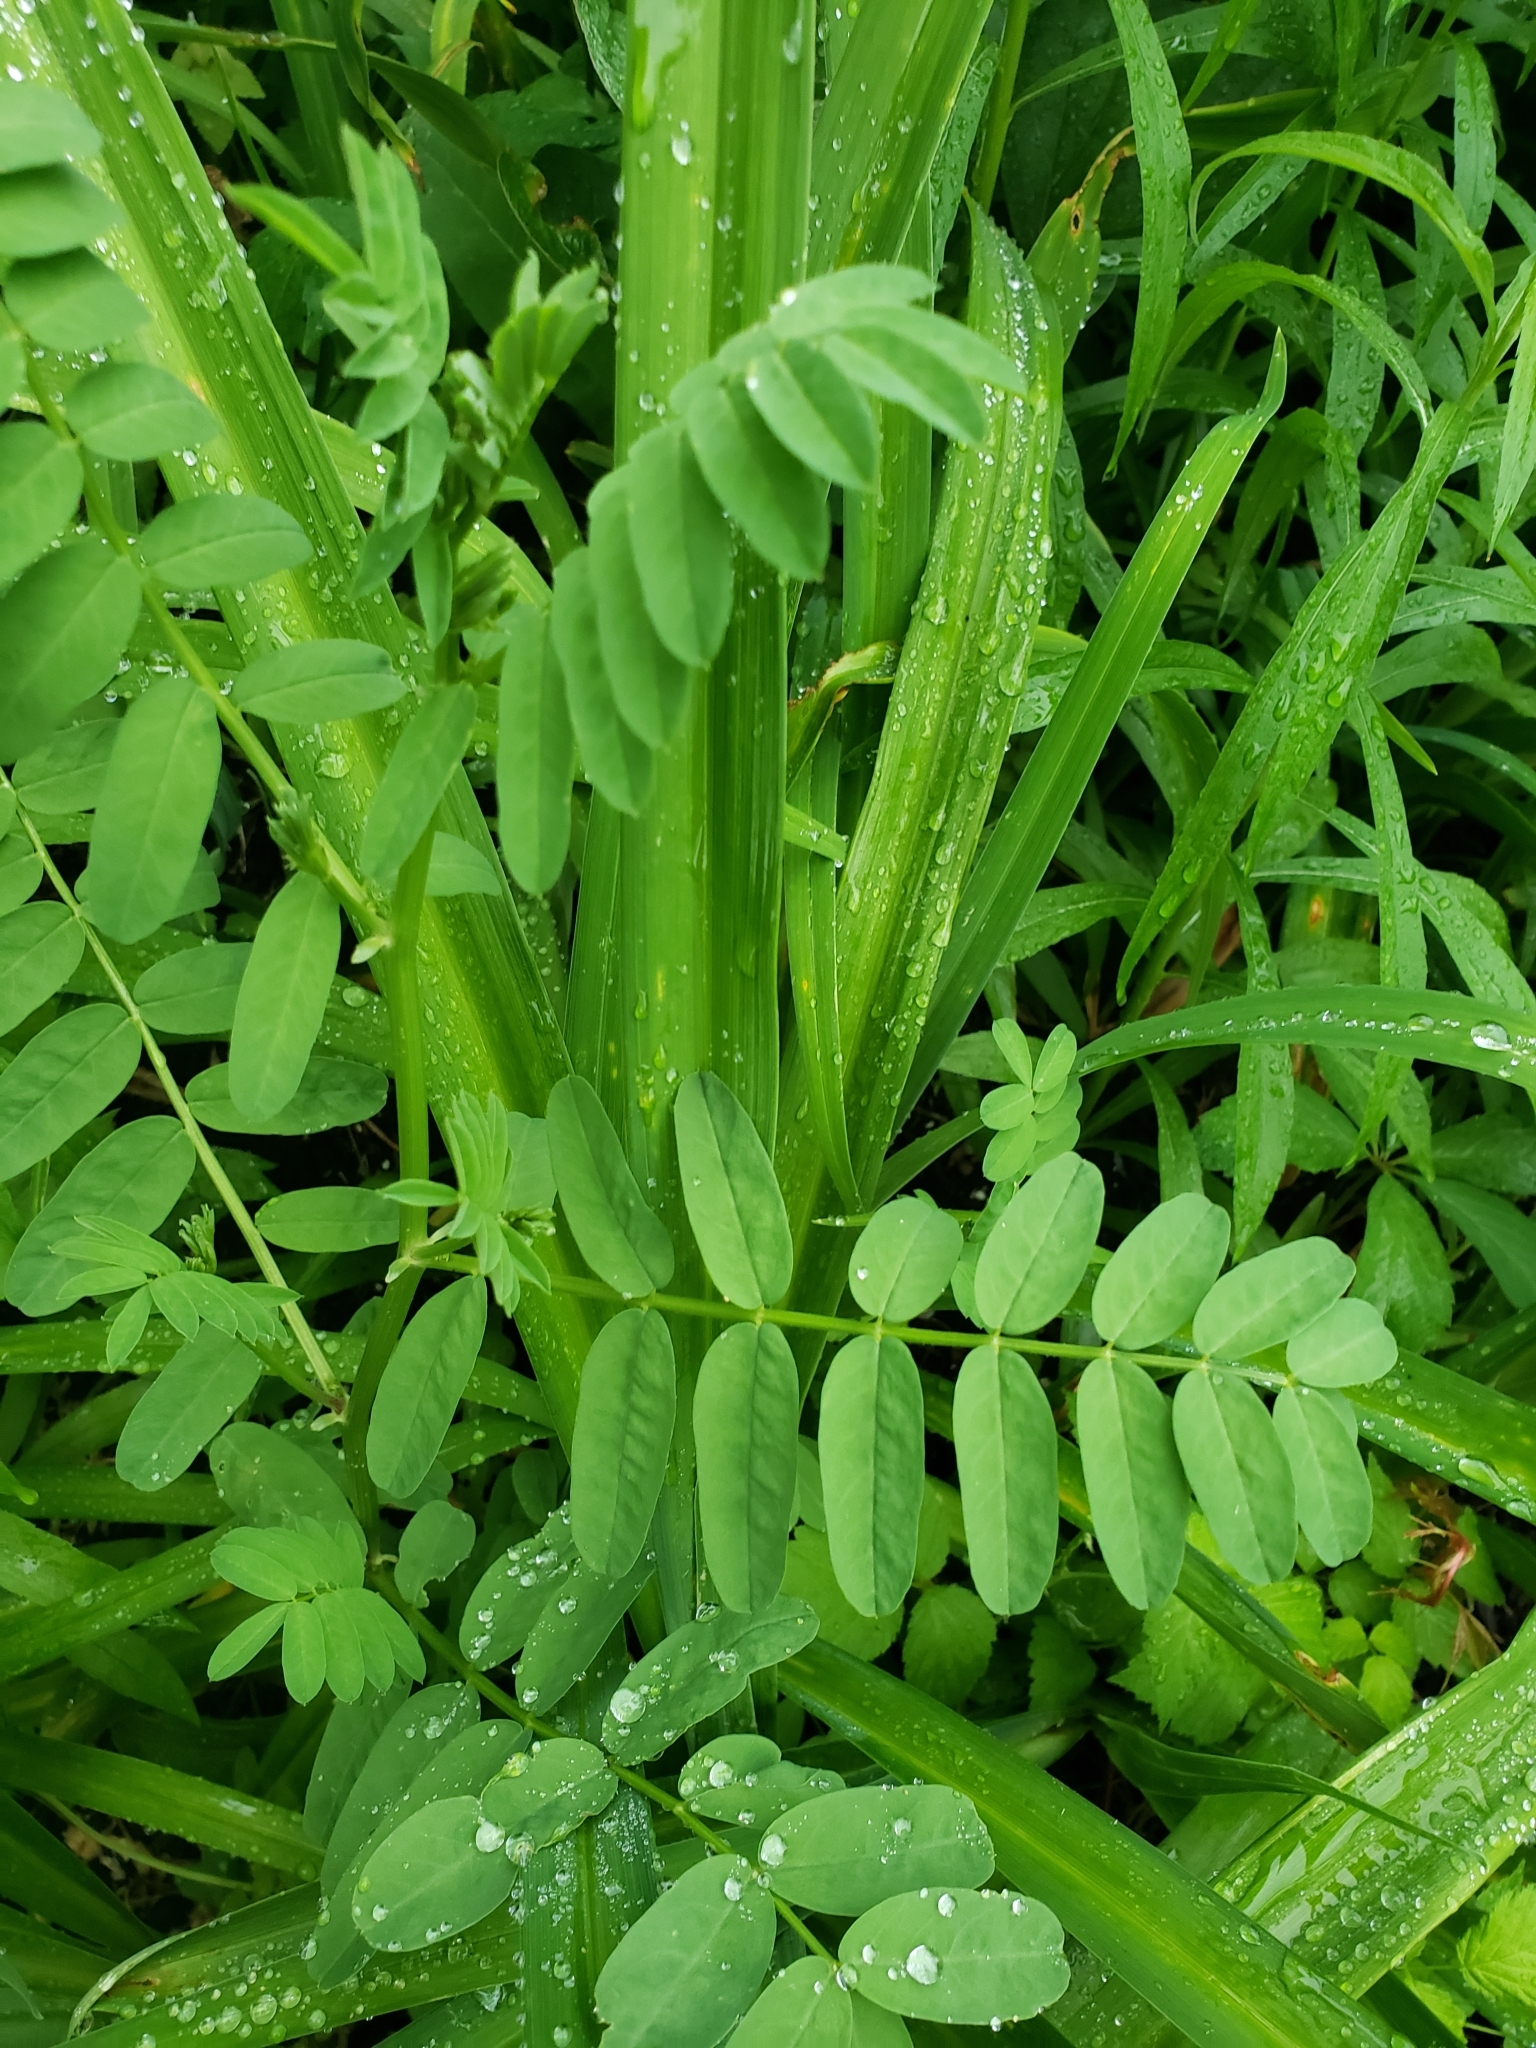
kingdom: Plantae
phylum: Tracheophyta
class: Magnoliopsida
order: Fabales
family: Fabaceae
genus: Coronilla
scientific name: Coronilla varia
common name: Crownvetch
